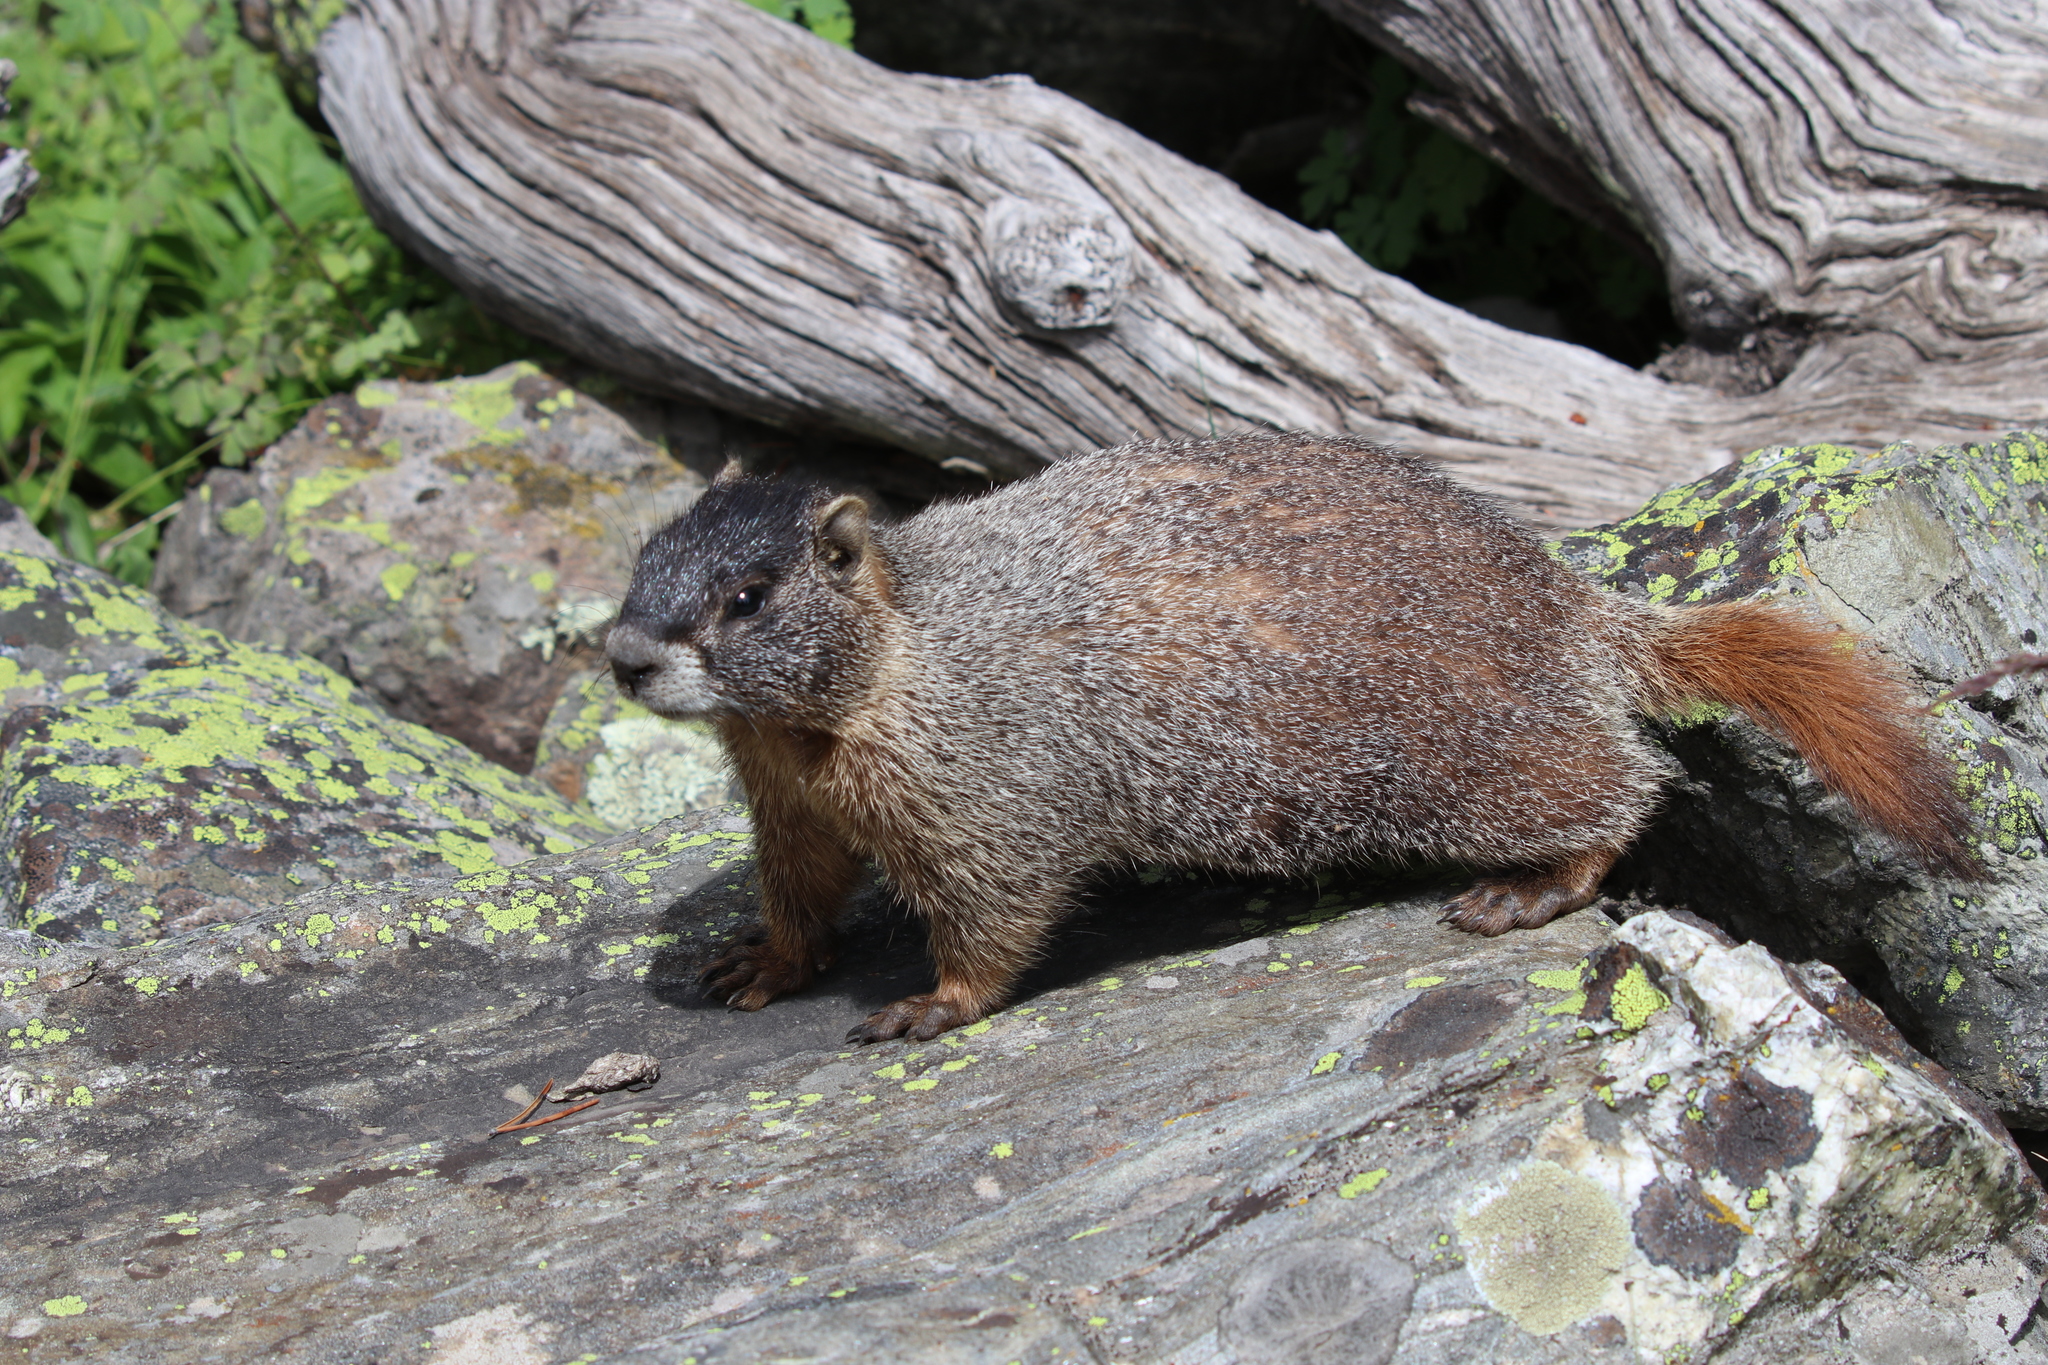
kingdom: Animalia
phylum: Chordata
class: Mammalia
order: Rodentia
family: Sciuridae
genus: Marmota
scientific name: Marmota flaviventris
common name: Yellow-bellied marmot
